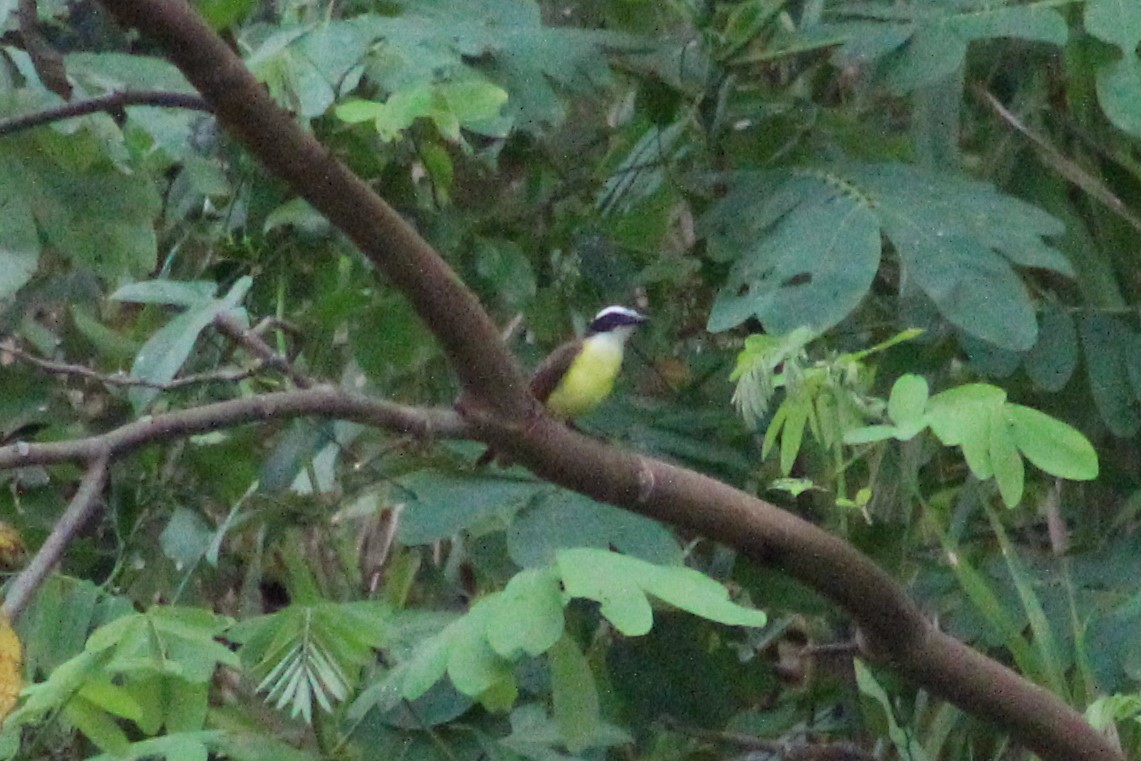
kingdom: Animalia
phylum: Chordata
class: Aves
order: Passeriformes
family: Tyrannidae
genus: Pitangus
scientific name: Pitangus lictor
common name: Lesser kiskadee
